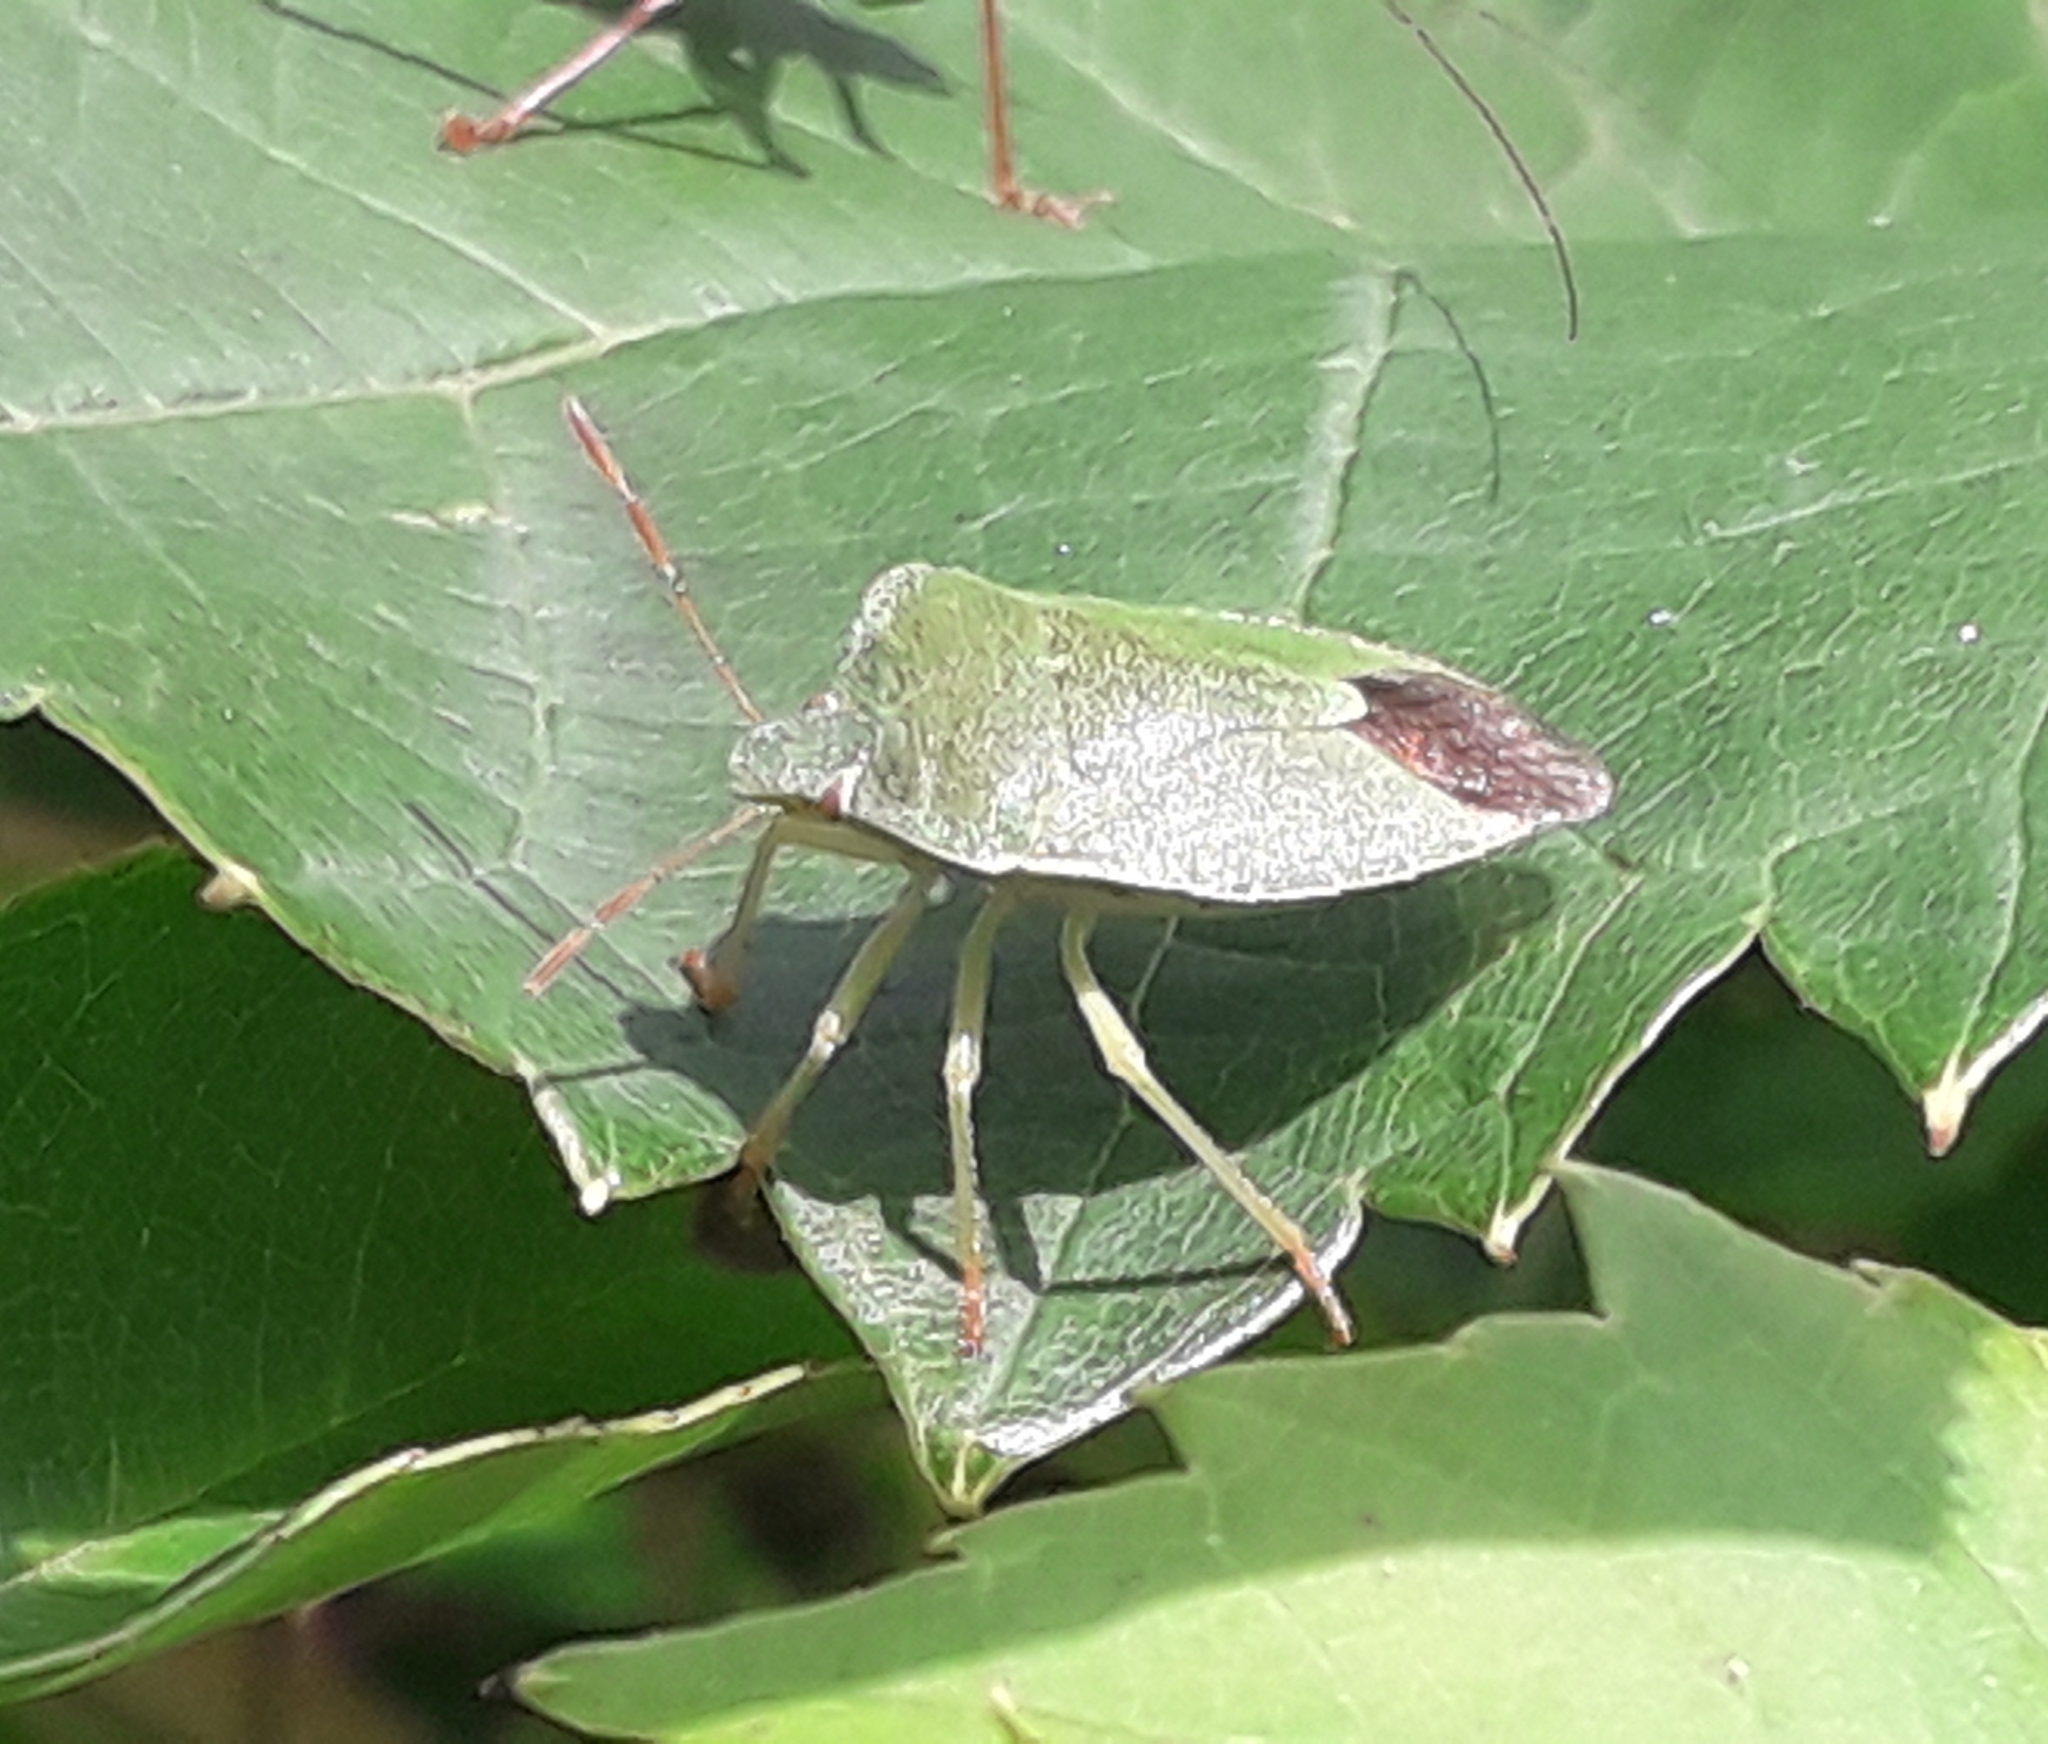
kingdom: Animalia
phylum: Arthropoda
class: Insecta
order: Hemiptera
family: Pentatomidae
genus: Palomena
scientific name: Palomena prasina
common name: Green shieldbug
